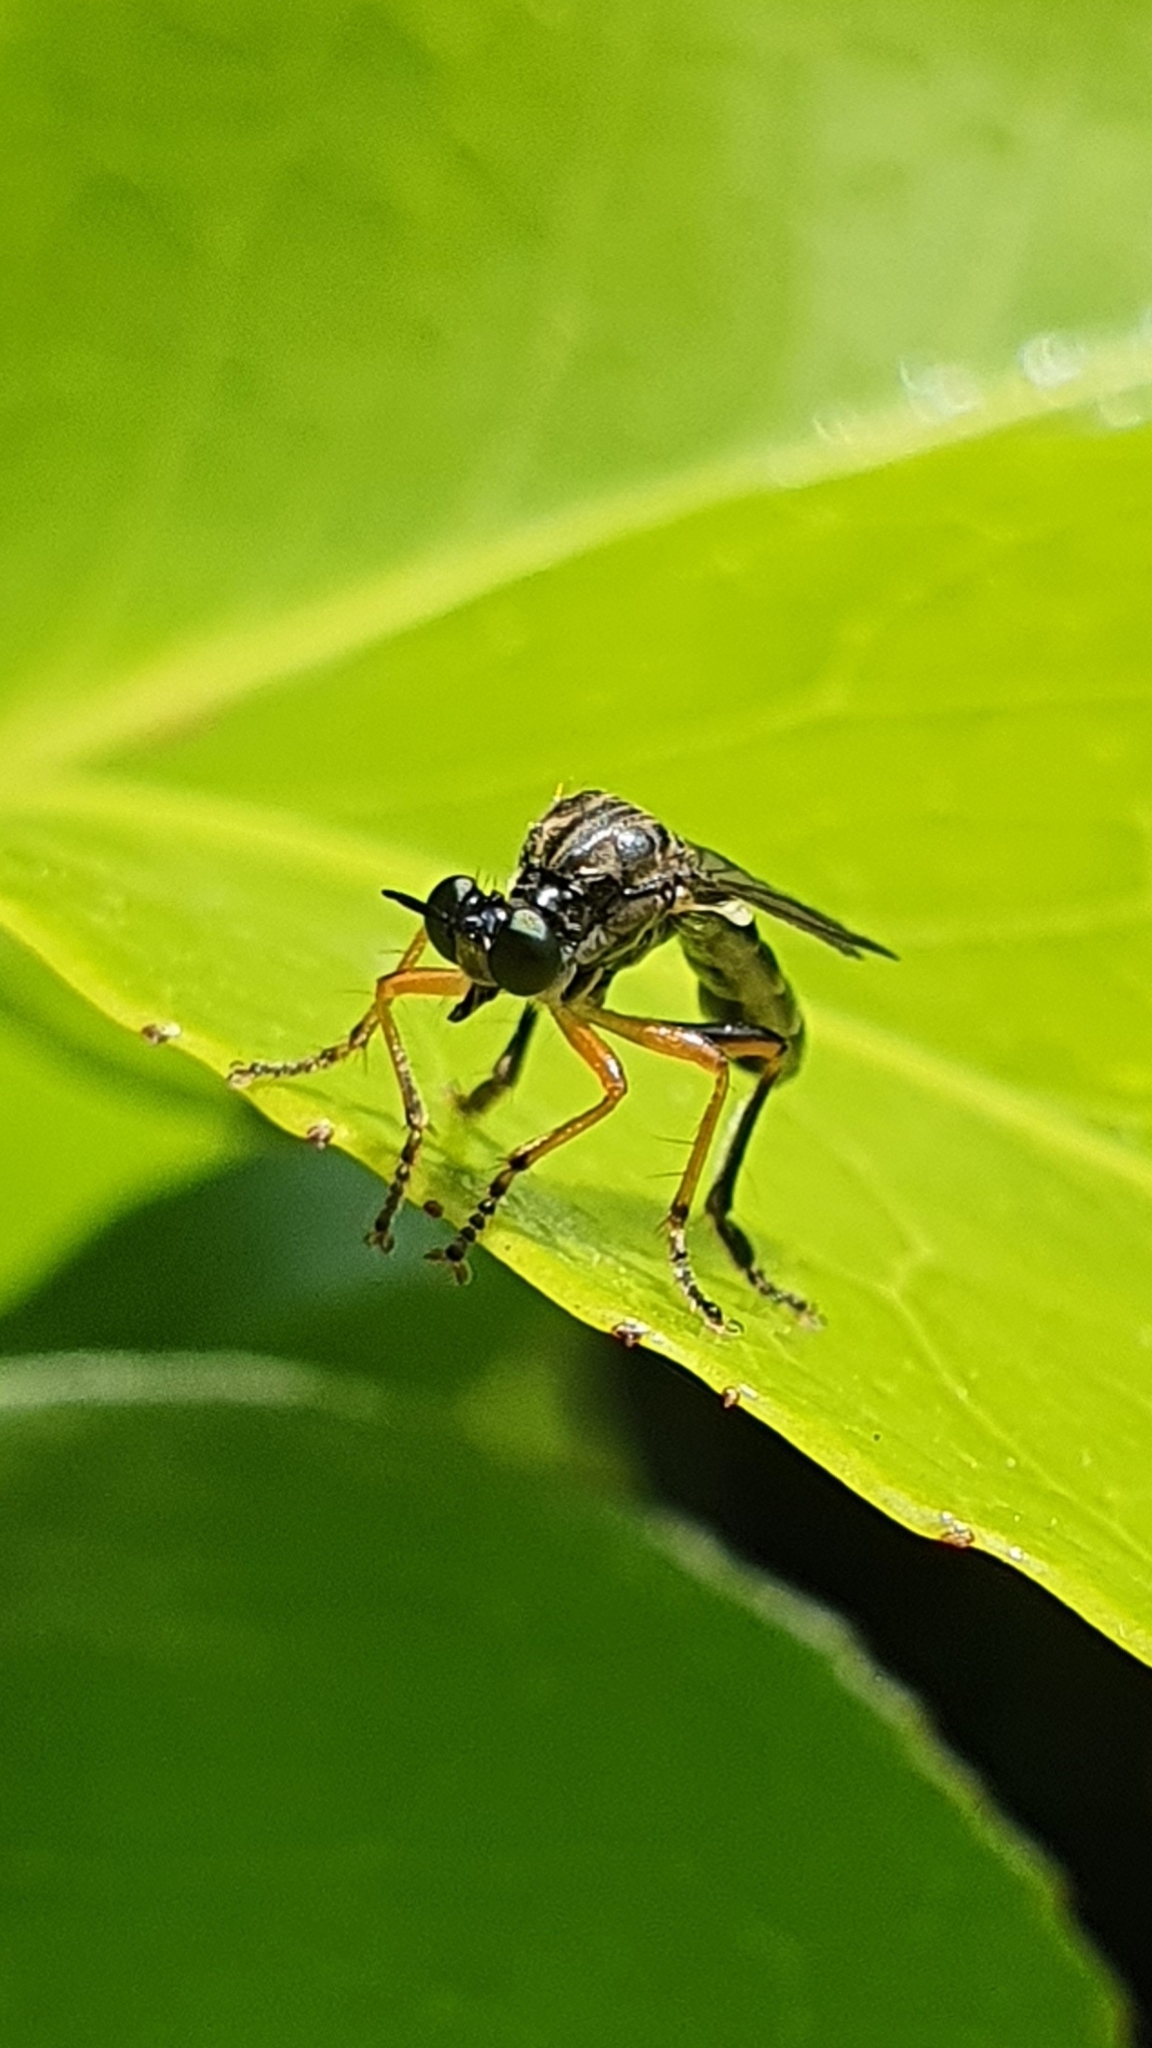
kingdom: Animalia
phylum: Arthropoda
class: Insecta
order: Diptera
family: Asilidae
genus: Dioctria
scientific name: Dioctria hyalipennis
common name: Stripe-legged robberfly
